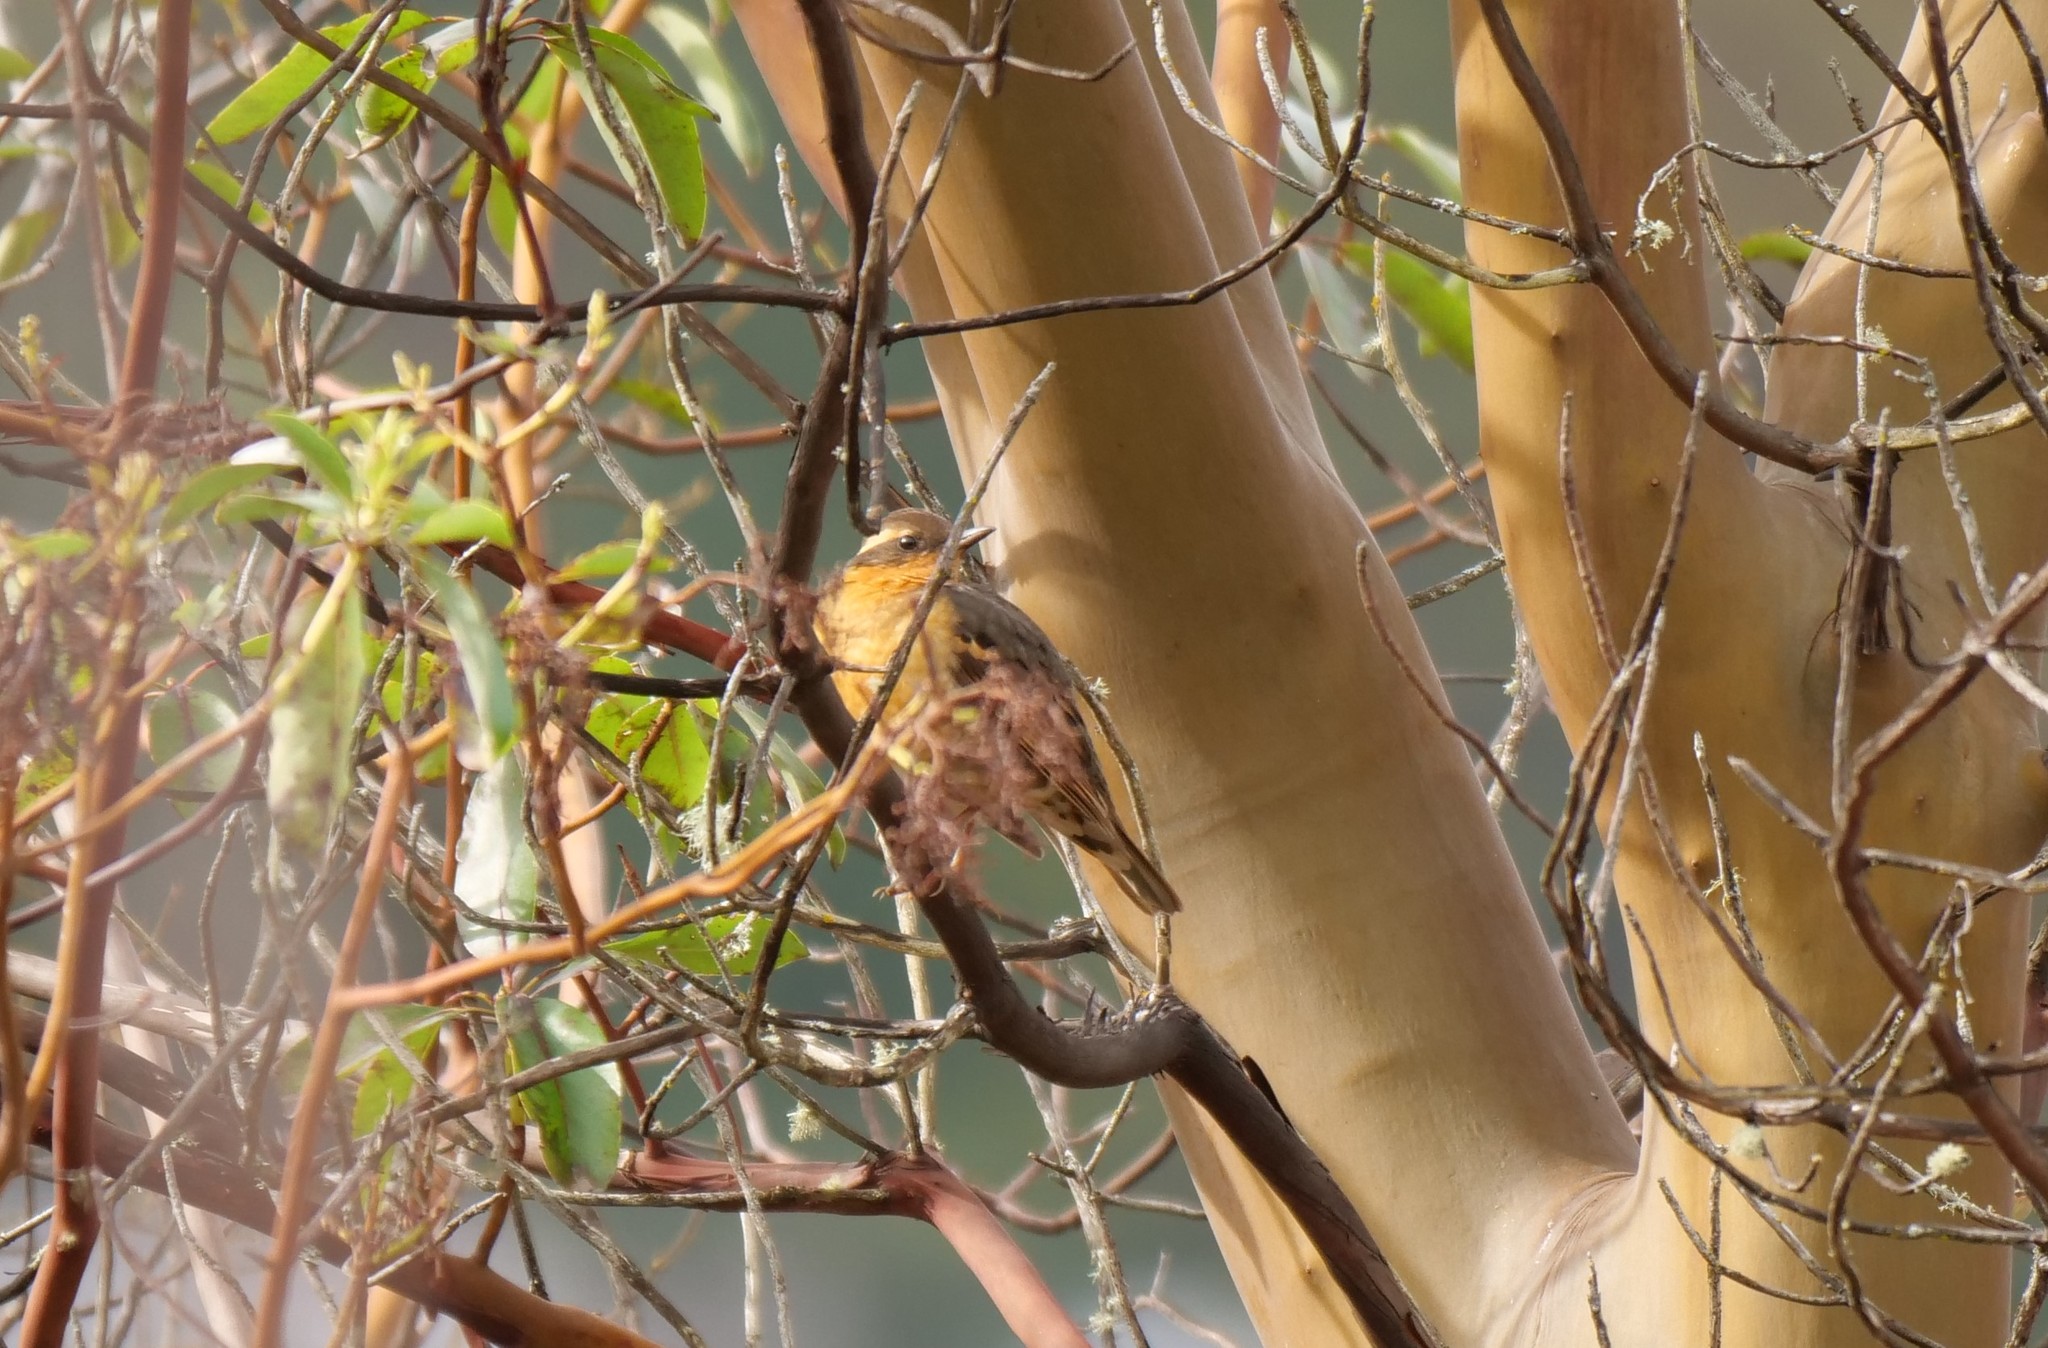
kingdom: Animalia
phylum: Chordata
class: Aves
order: Passeriformes
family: Turdidae
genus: Ixoreus
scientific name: Ixoreus naevius
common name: Varied thrush
